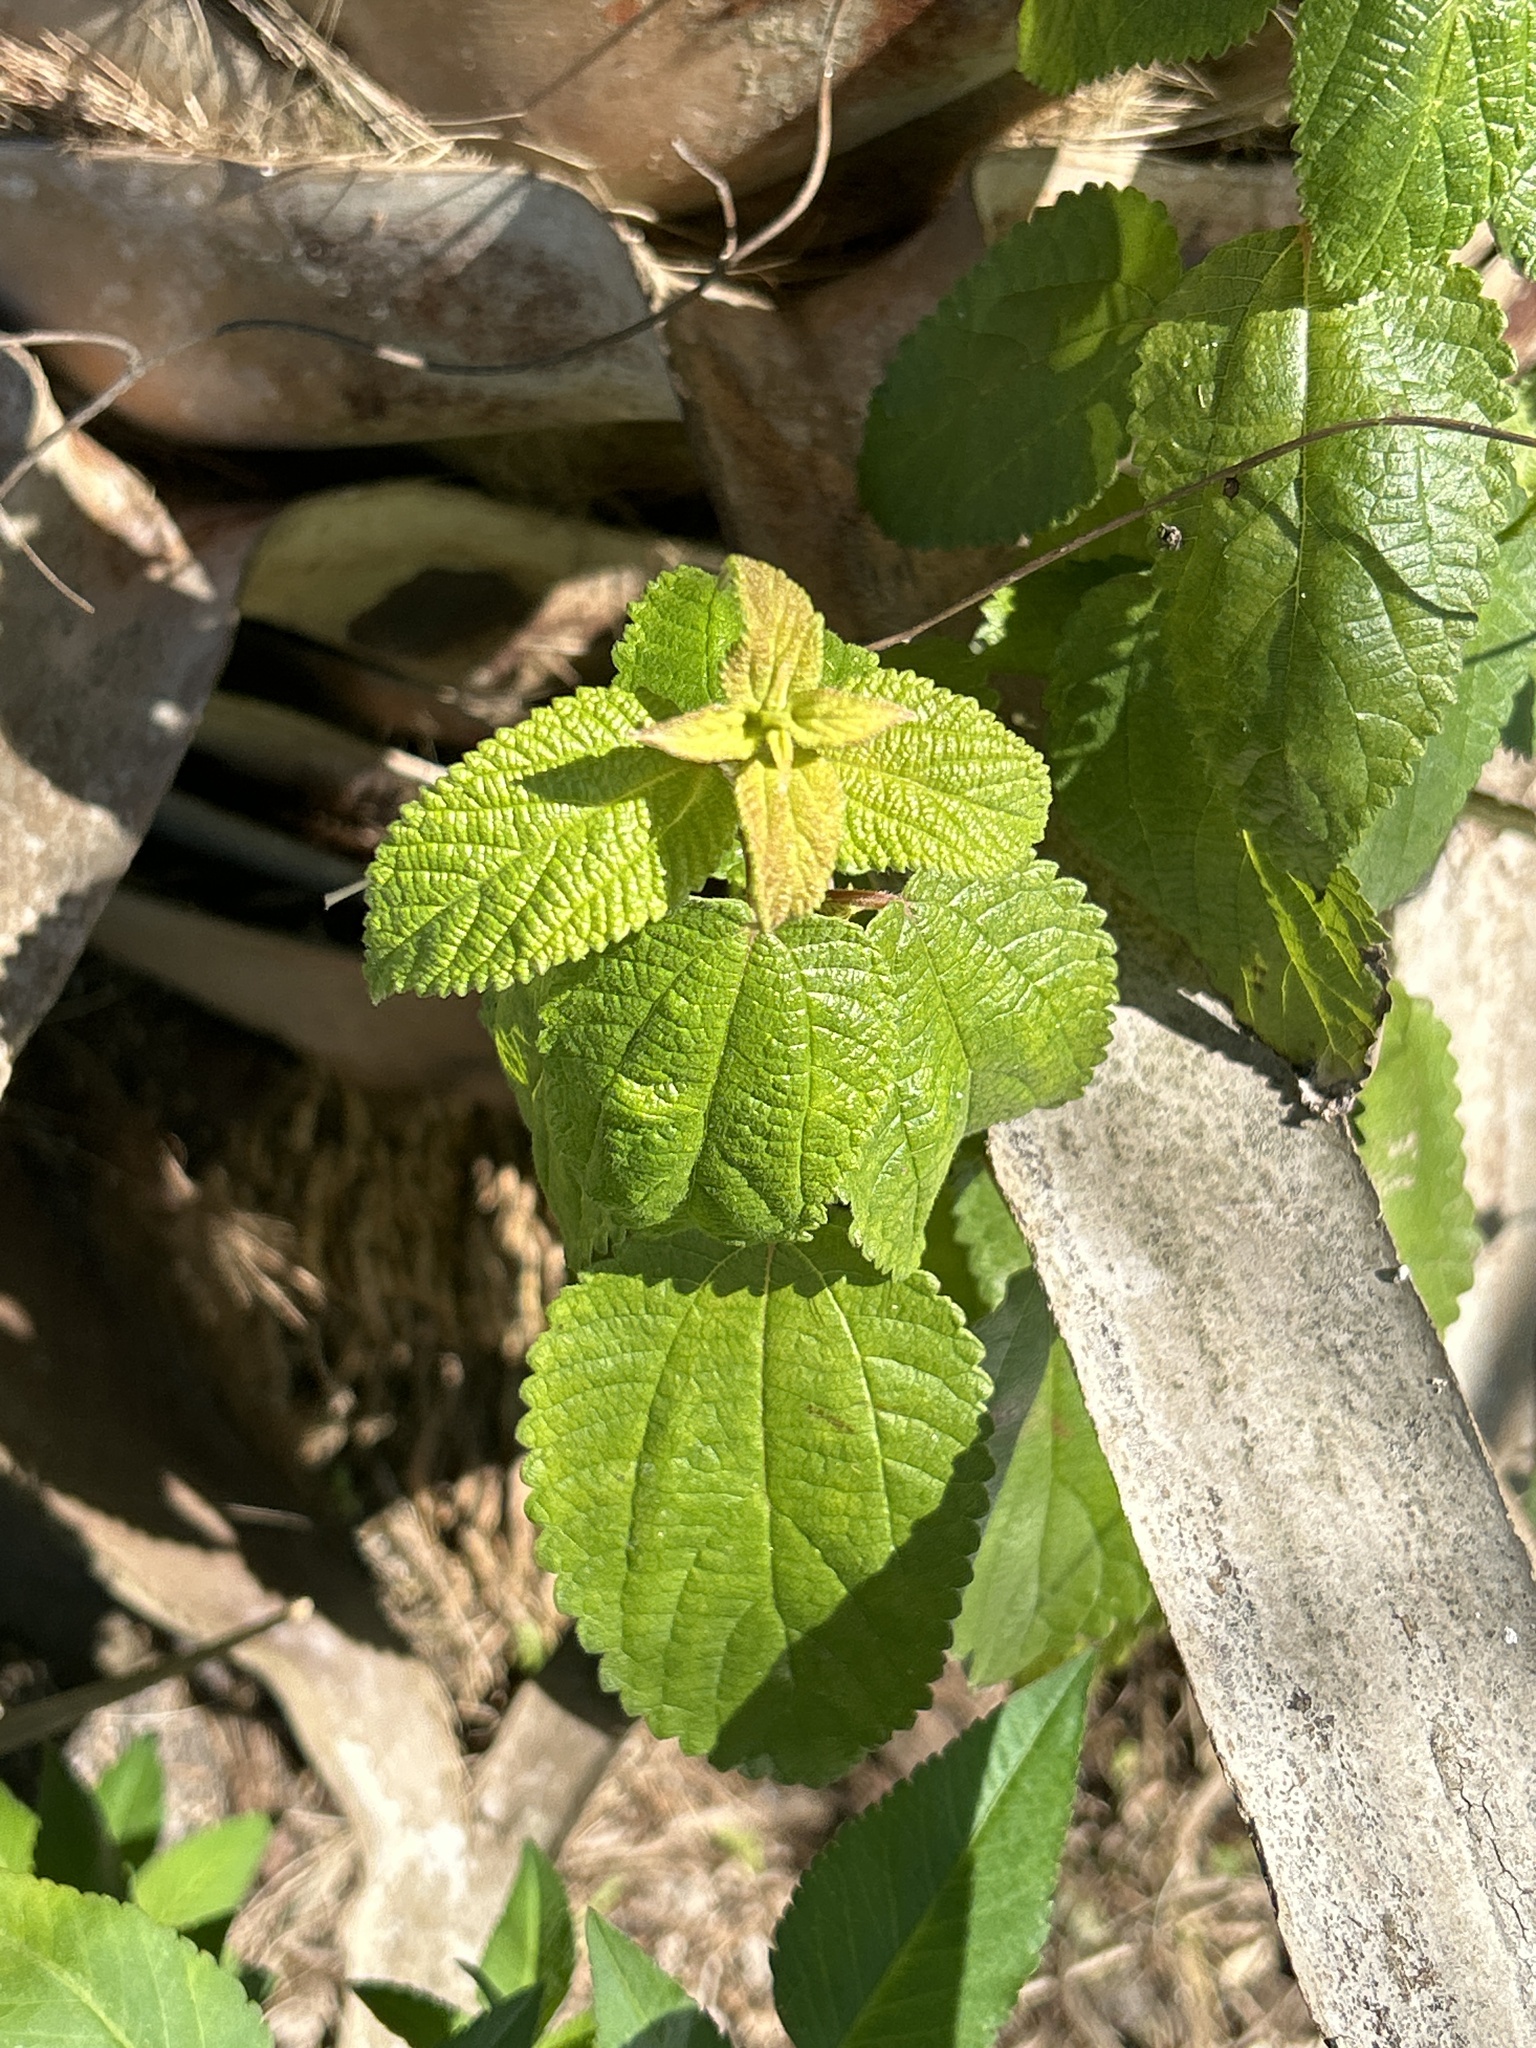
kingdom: Plantae
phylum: Tracheophyta
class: Magnoliopsida
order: Rosales
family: Urticaceae
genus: Boehmeria
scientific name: Boehmeria cylindrica
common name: Bog-hemp
